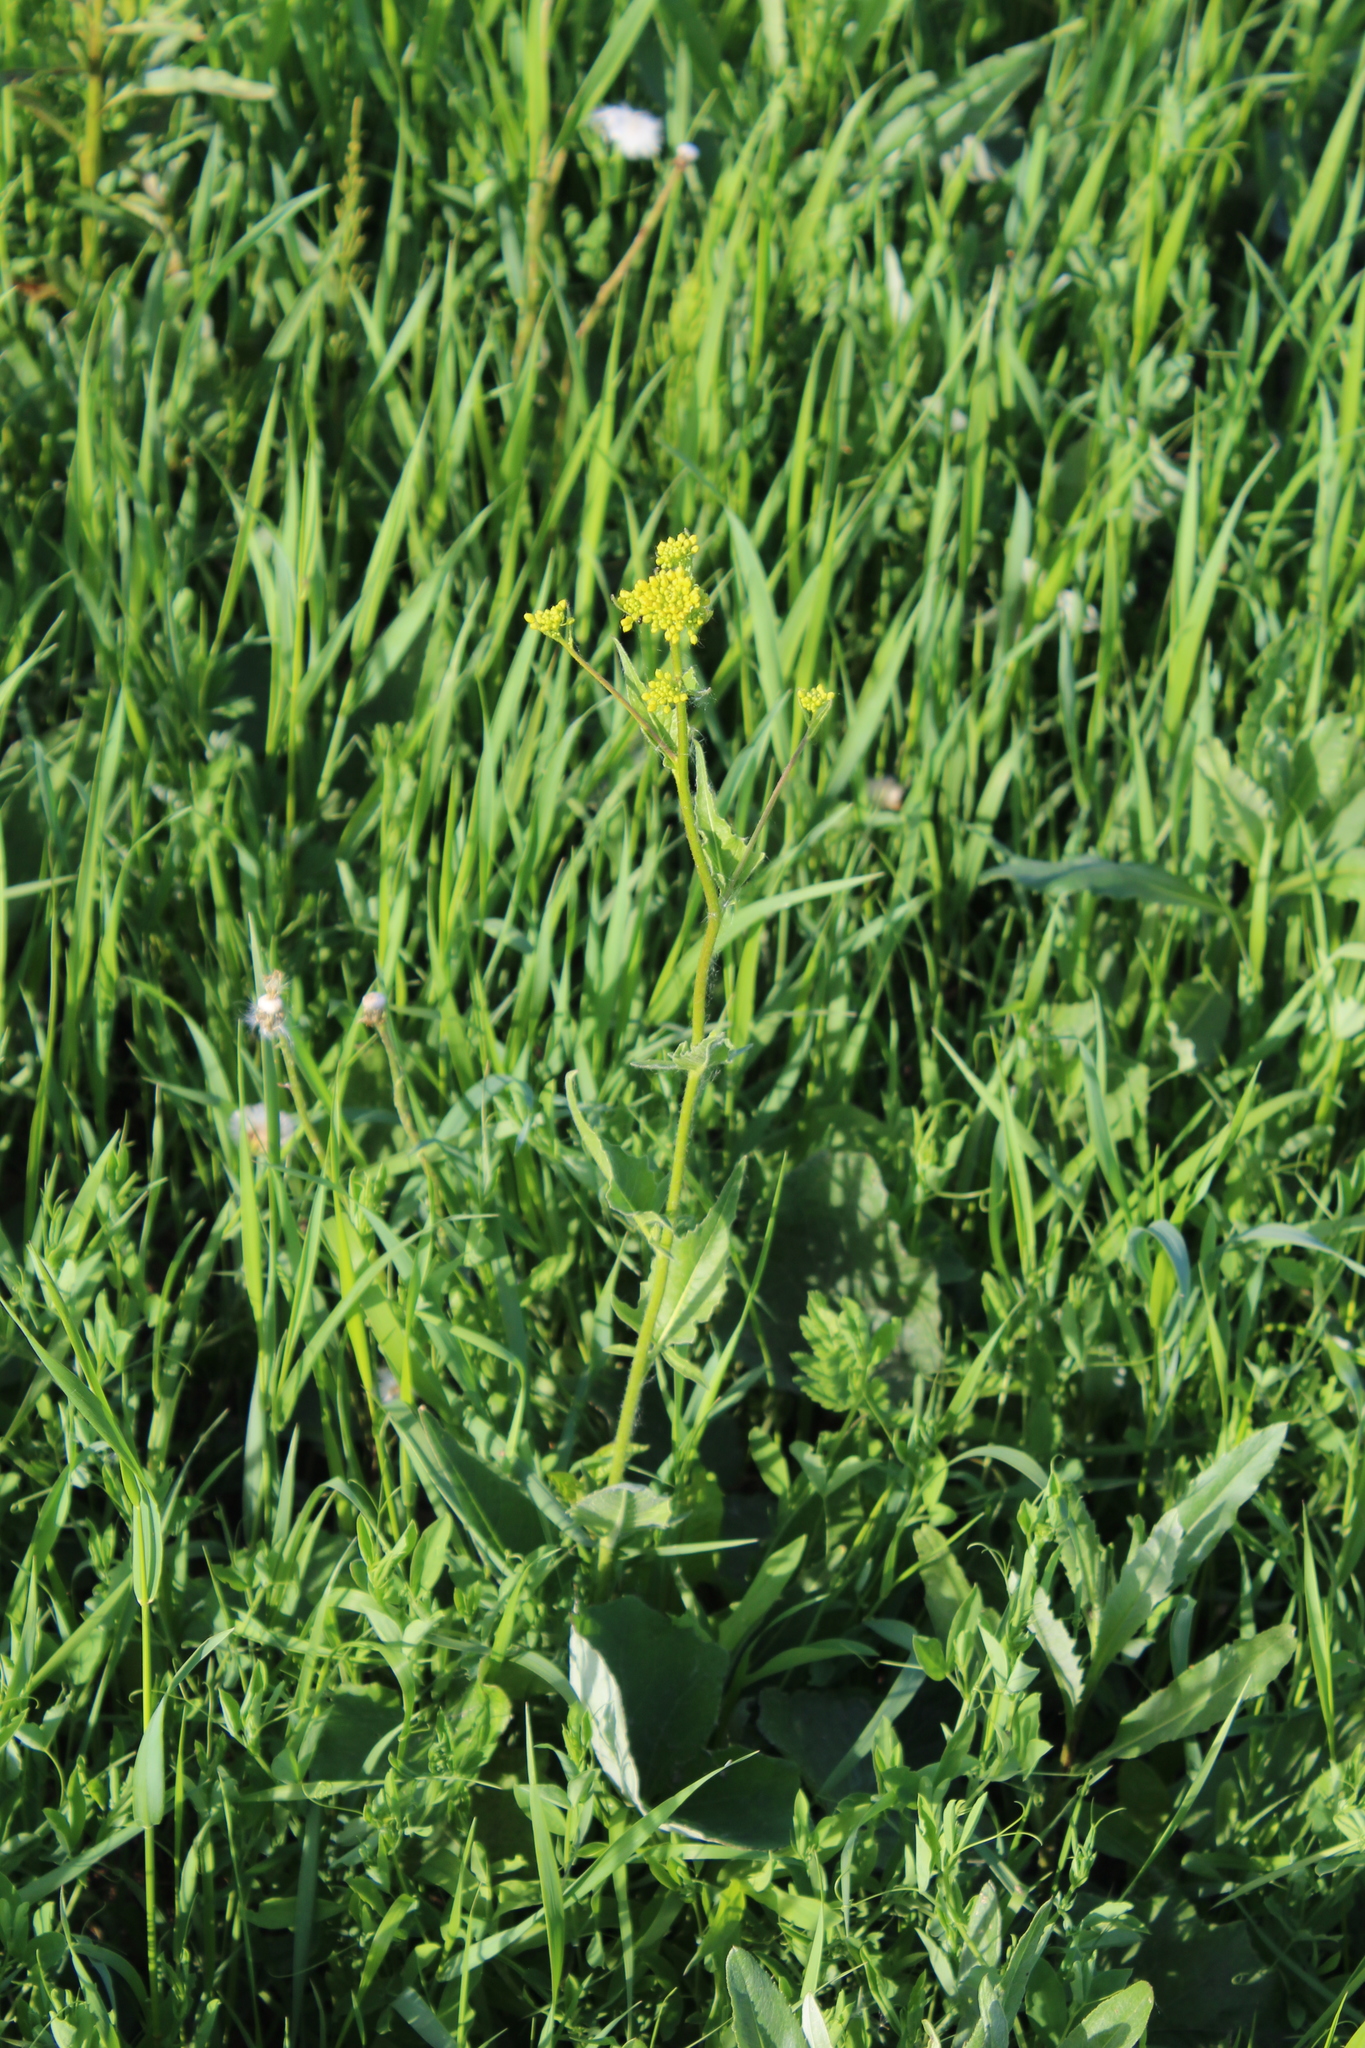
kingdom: Plantae
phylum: Tracheophyta
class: Magnoliopsida
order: Brassicales
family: Brassicaceae
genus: Bunias
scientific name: Bunias orientalis
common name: Warty-cabbage
